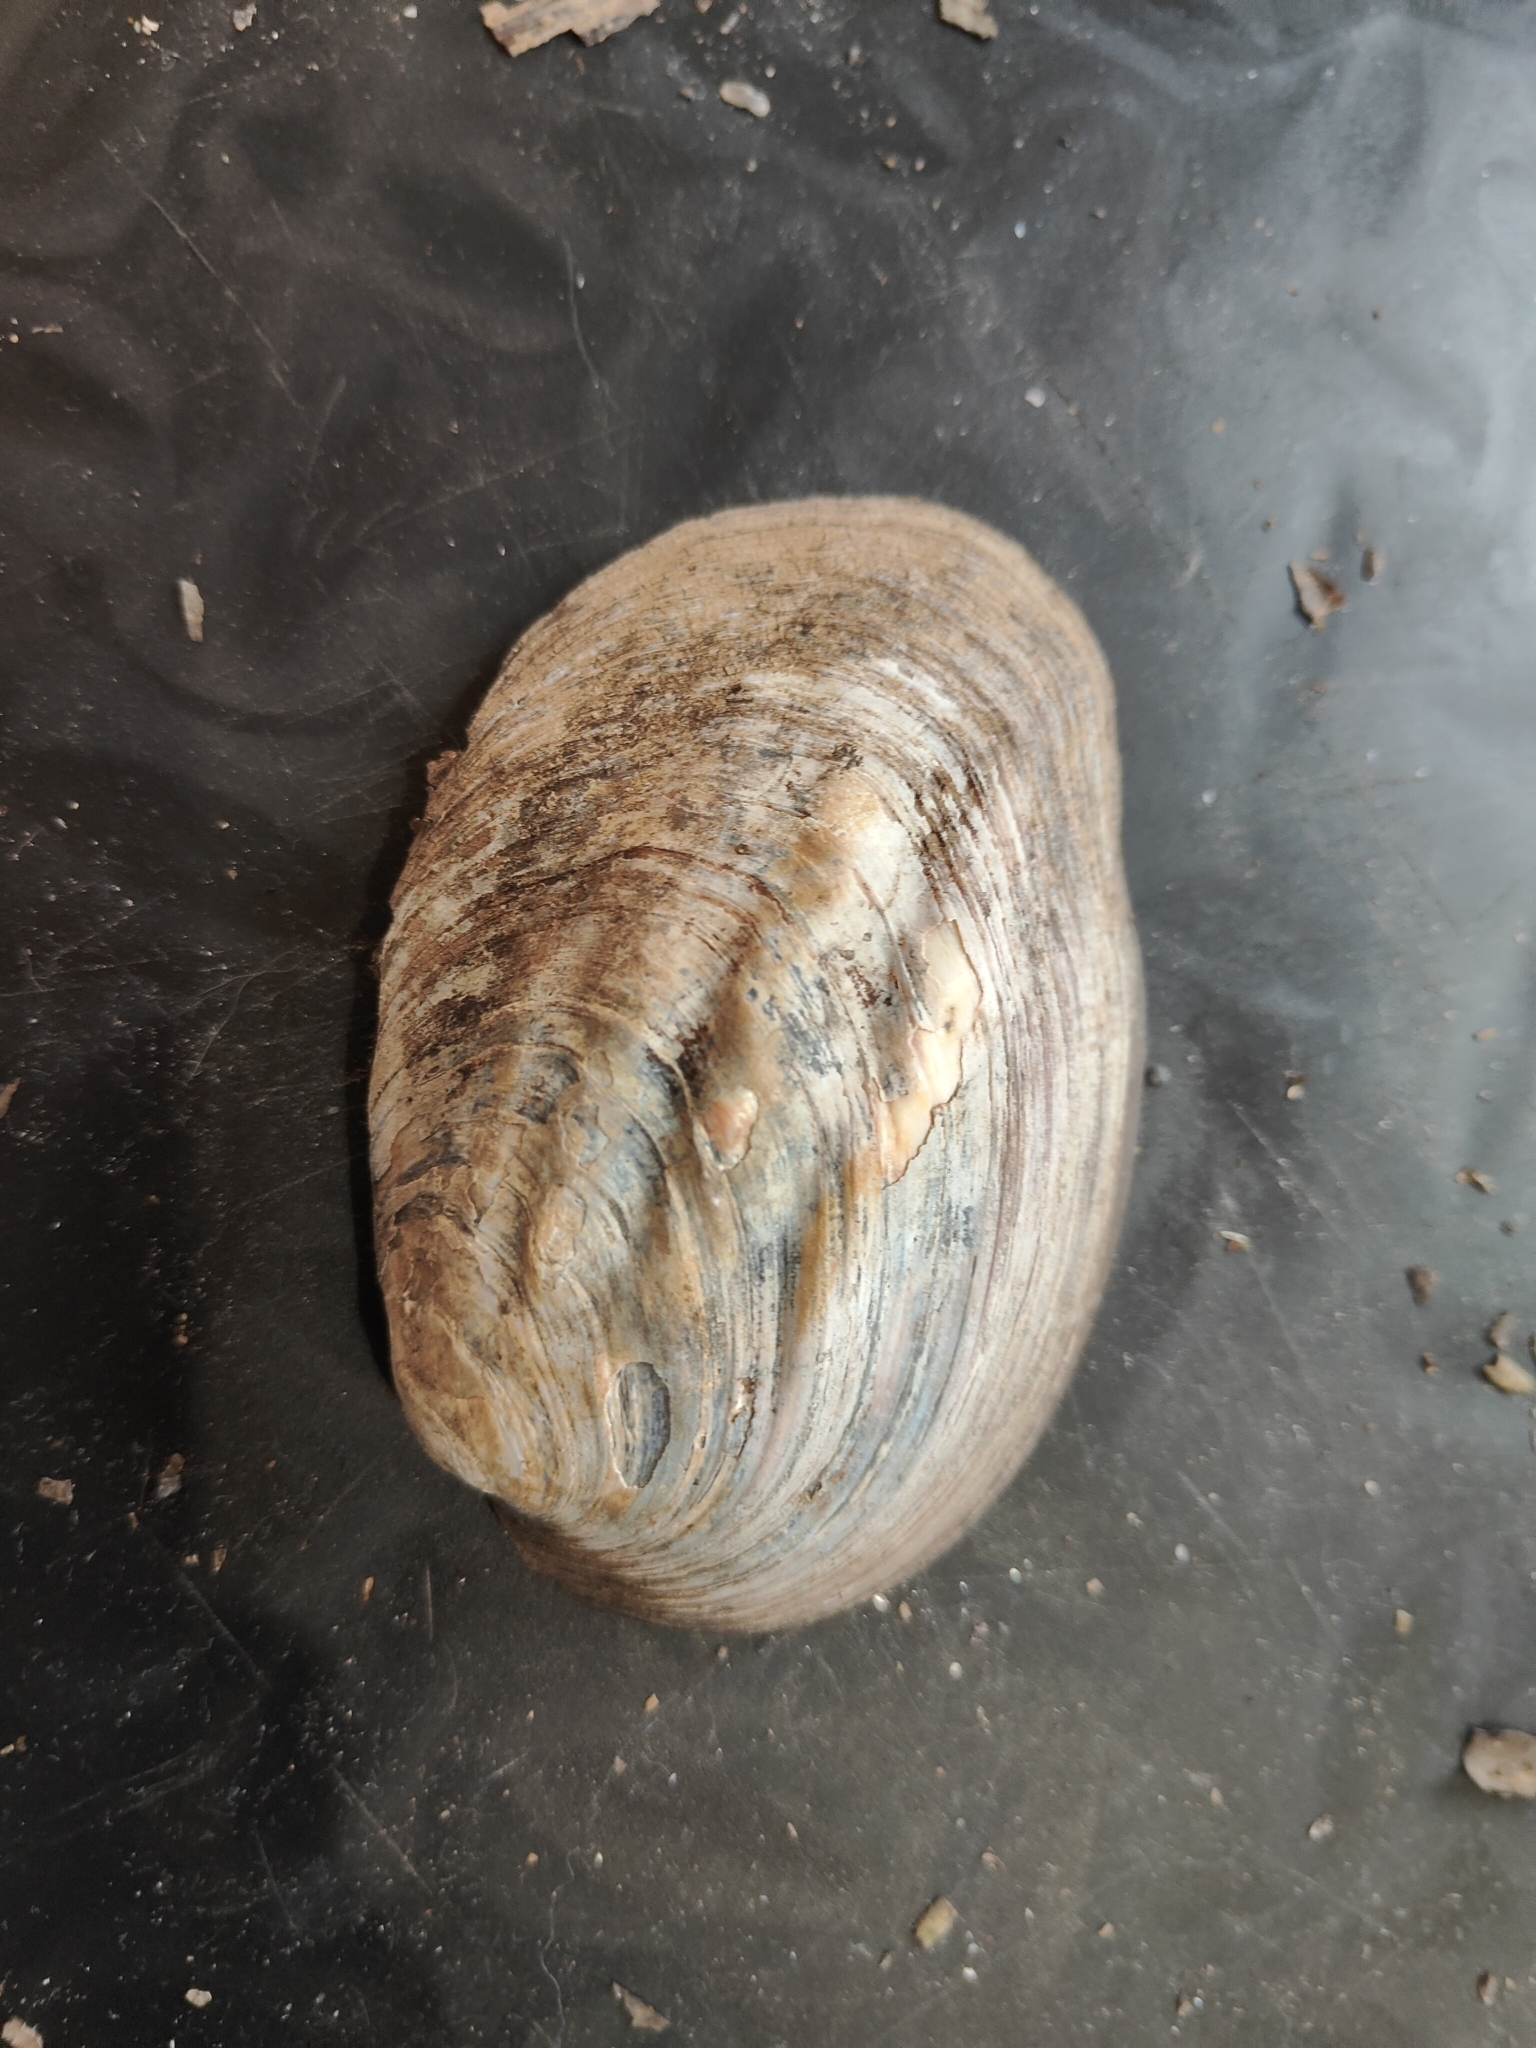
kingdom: Animalia
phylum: Mollusca
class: Bivalvia
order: Unionida
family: Unionidae
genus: Amblema
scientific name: Amblema plicata
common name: Threeridge
